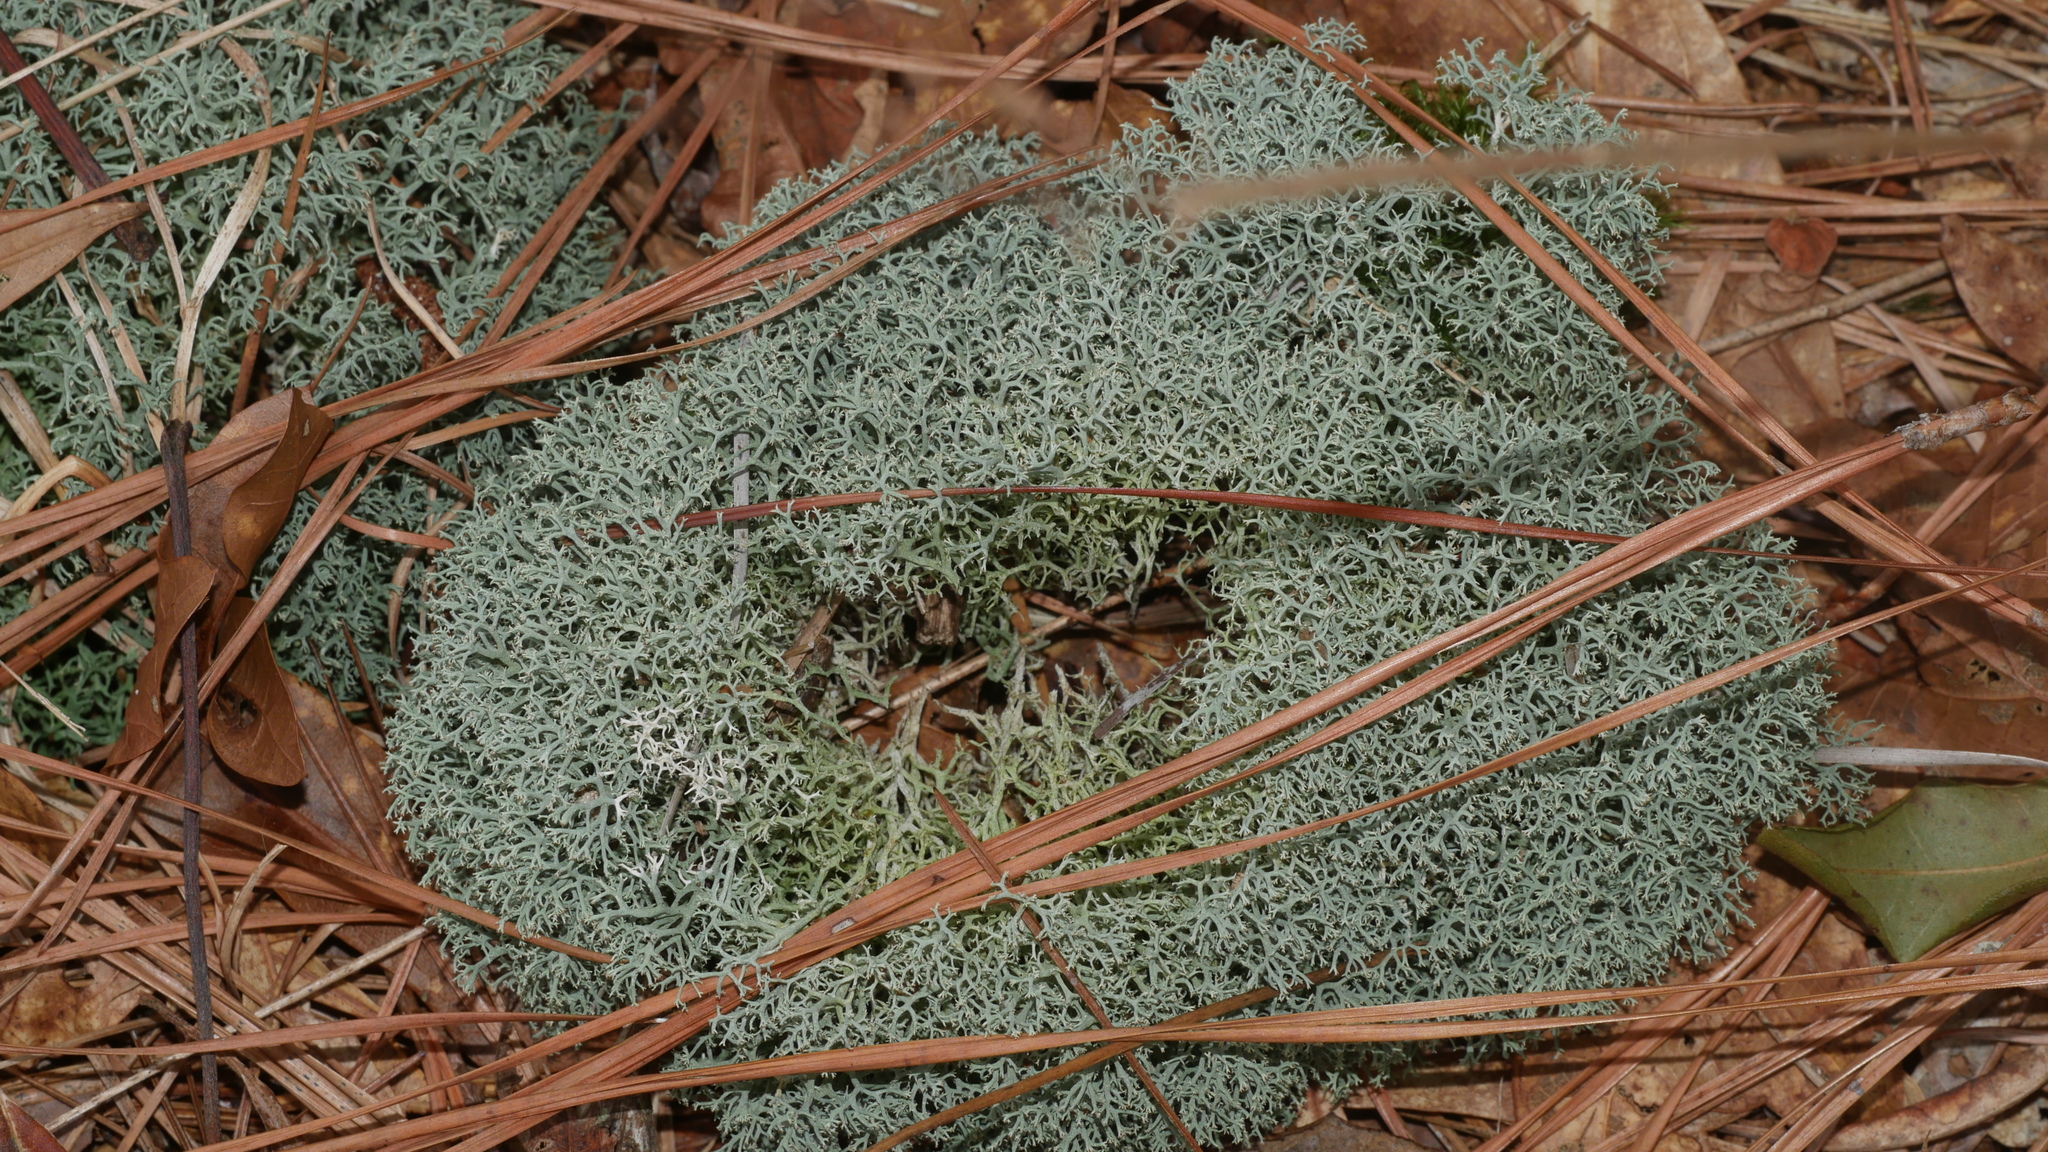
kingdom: Fungi
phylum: Ascomycota
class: Lecanoromycetes
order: Lecanorales
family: Cladoniaceae
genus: Cladonia
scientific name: Cladonia subtenuis
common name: Dixie reindeer lichen
